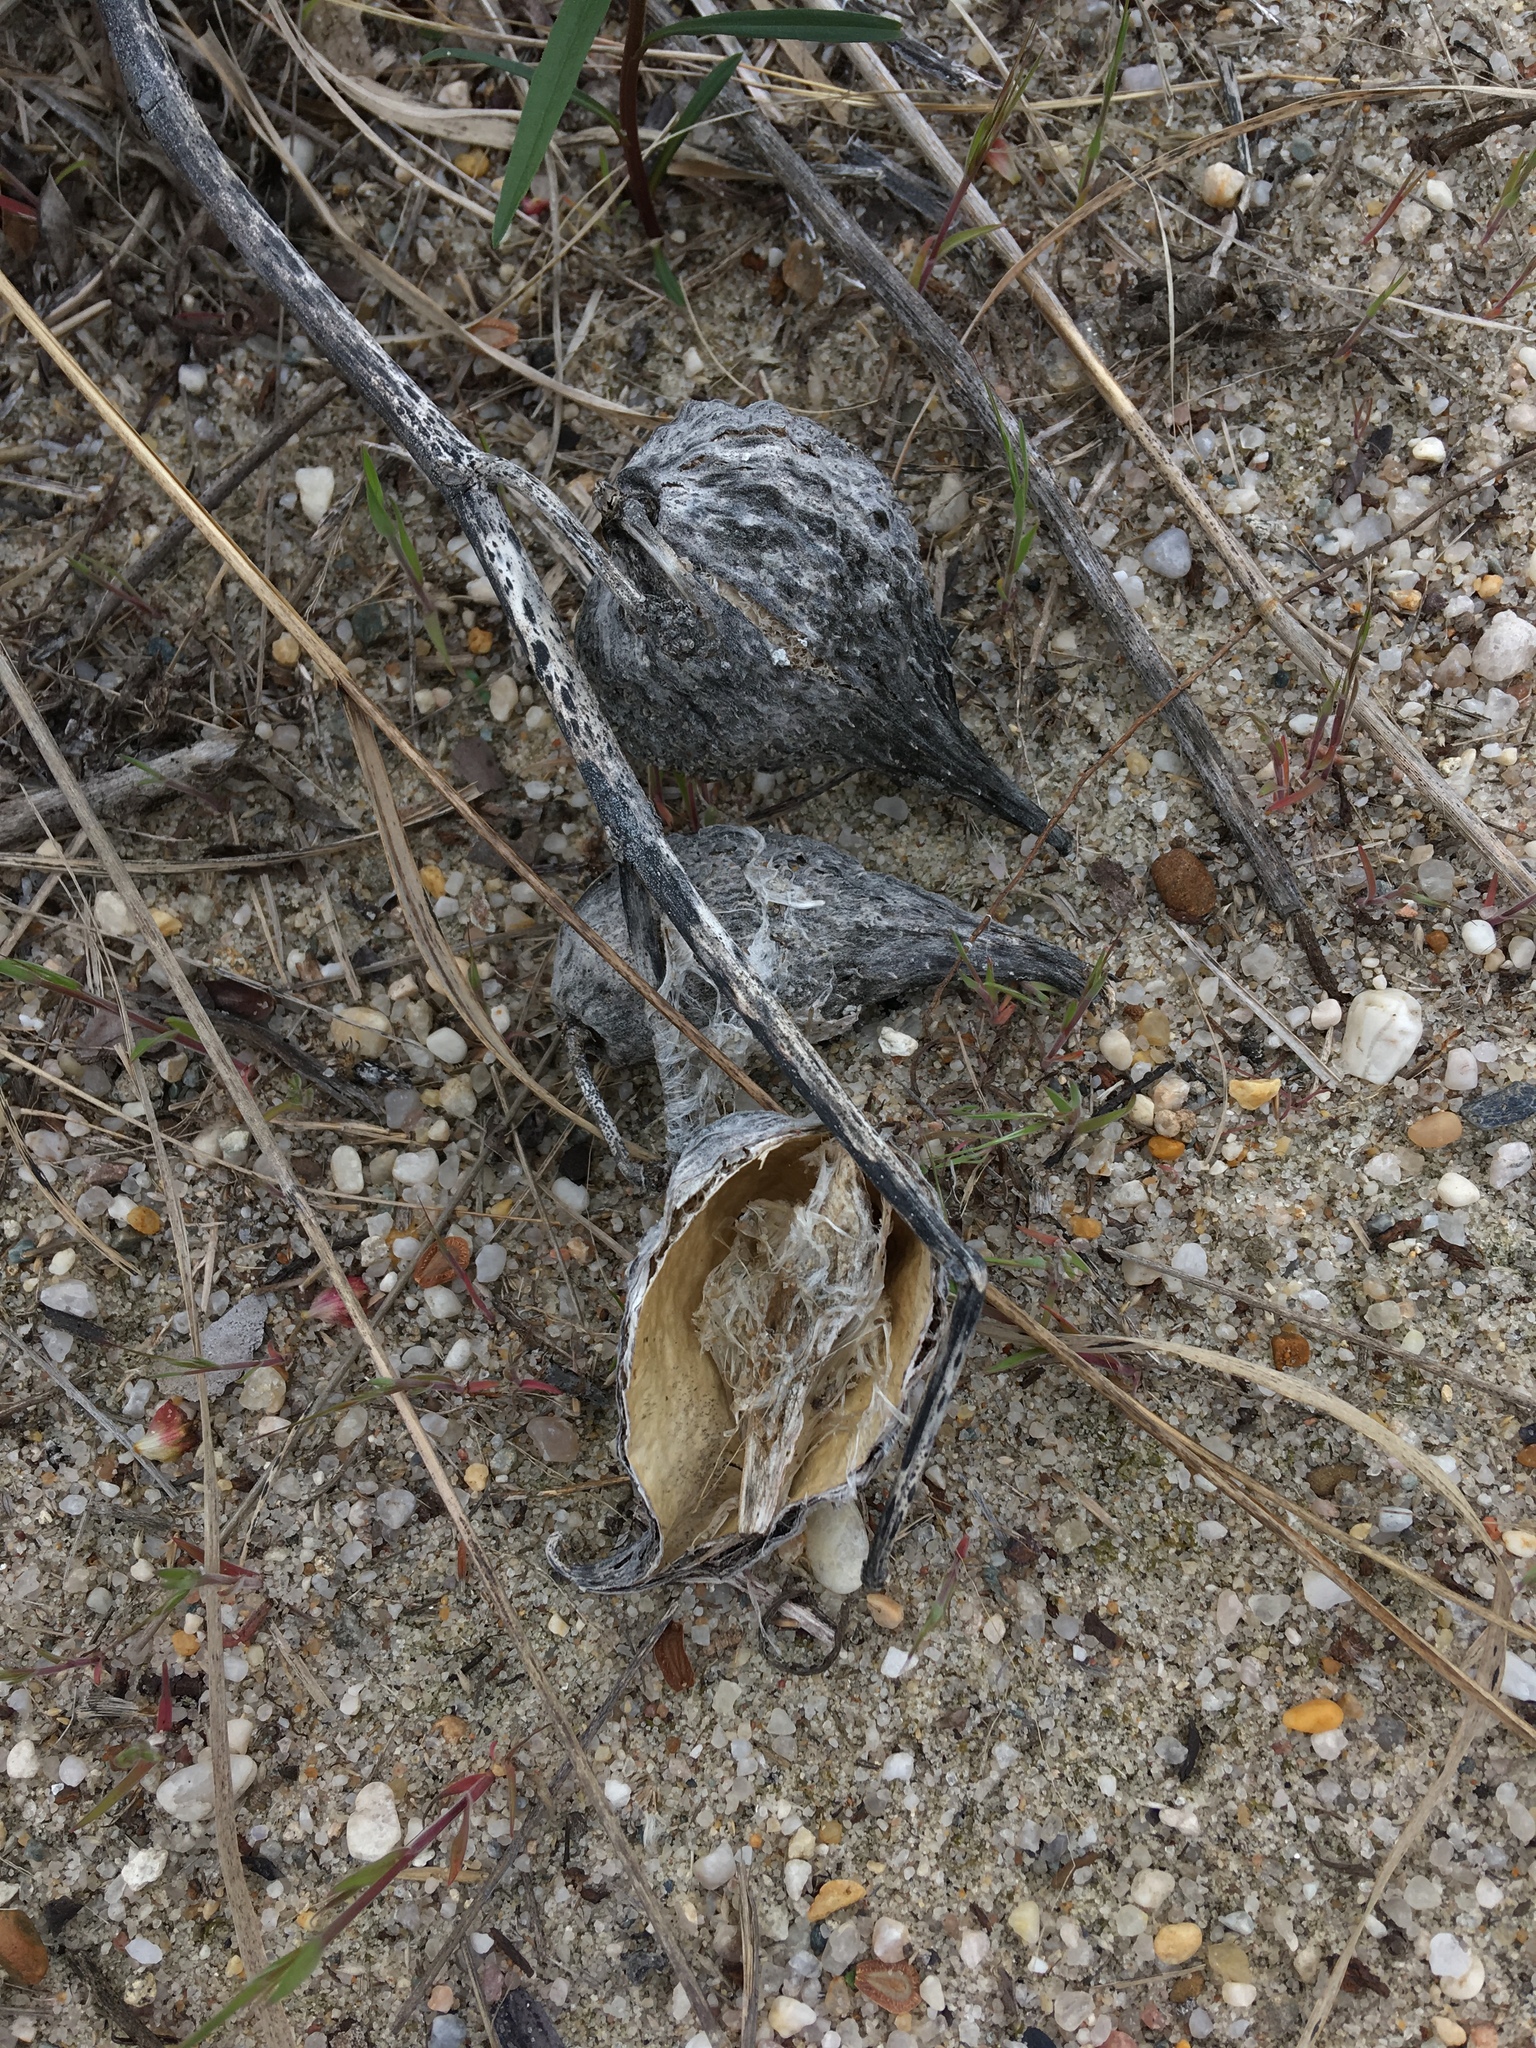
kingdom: Plantae
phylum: Tracheophyta
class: Magnoliopsida
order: Gentianales
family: Apocynaceae
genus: Asclepias
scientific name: Asclepias syriaca
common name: Common milkweed
